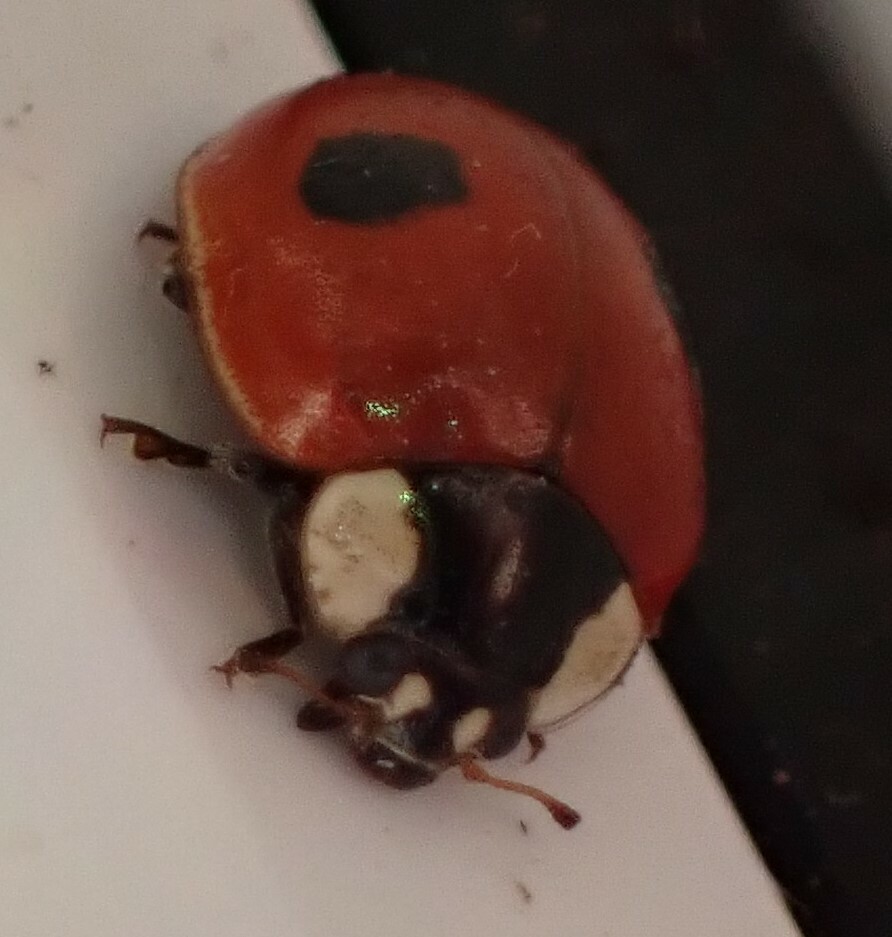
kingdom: Animalia
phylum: Arthropoda
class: Insecta
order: Coleoptera
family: Coccinellidae
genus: Adalia
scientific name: Adalia bipunctata
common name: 2-spot ladybird
